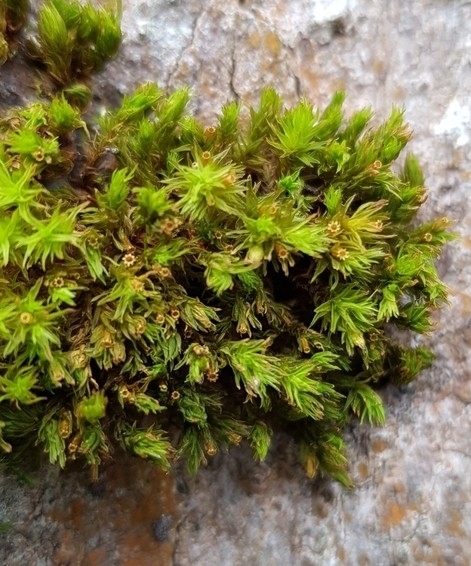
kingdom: Plantae
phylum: Bryophyta
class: Bryopsida
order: Orthotrichales
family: Orthotrichaceae
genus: Lewinskya
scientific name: Lewinskya affinis
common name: Wood bristle-moss
